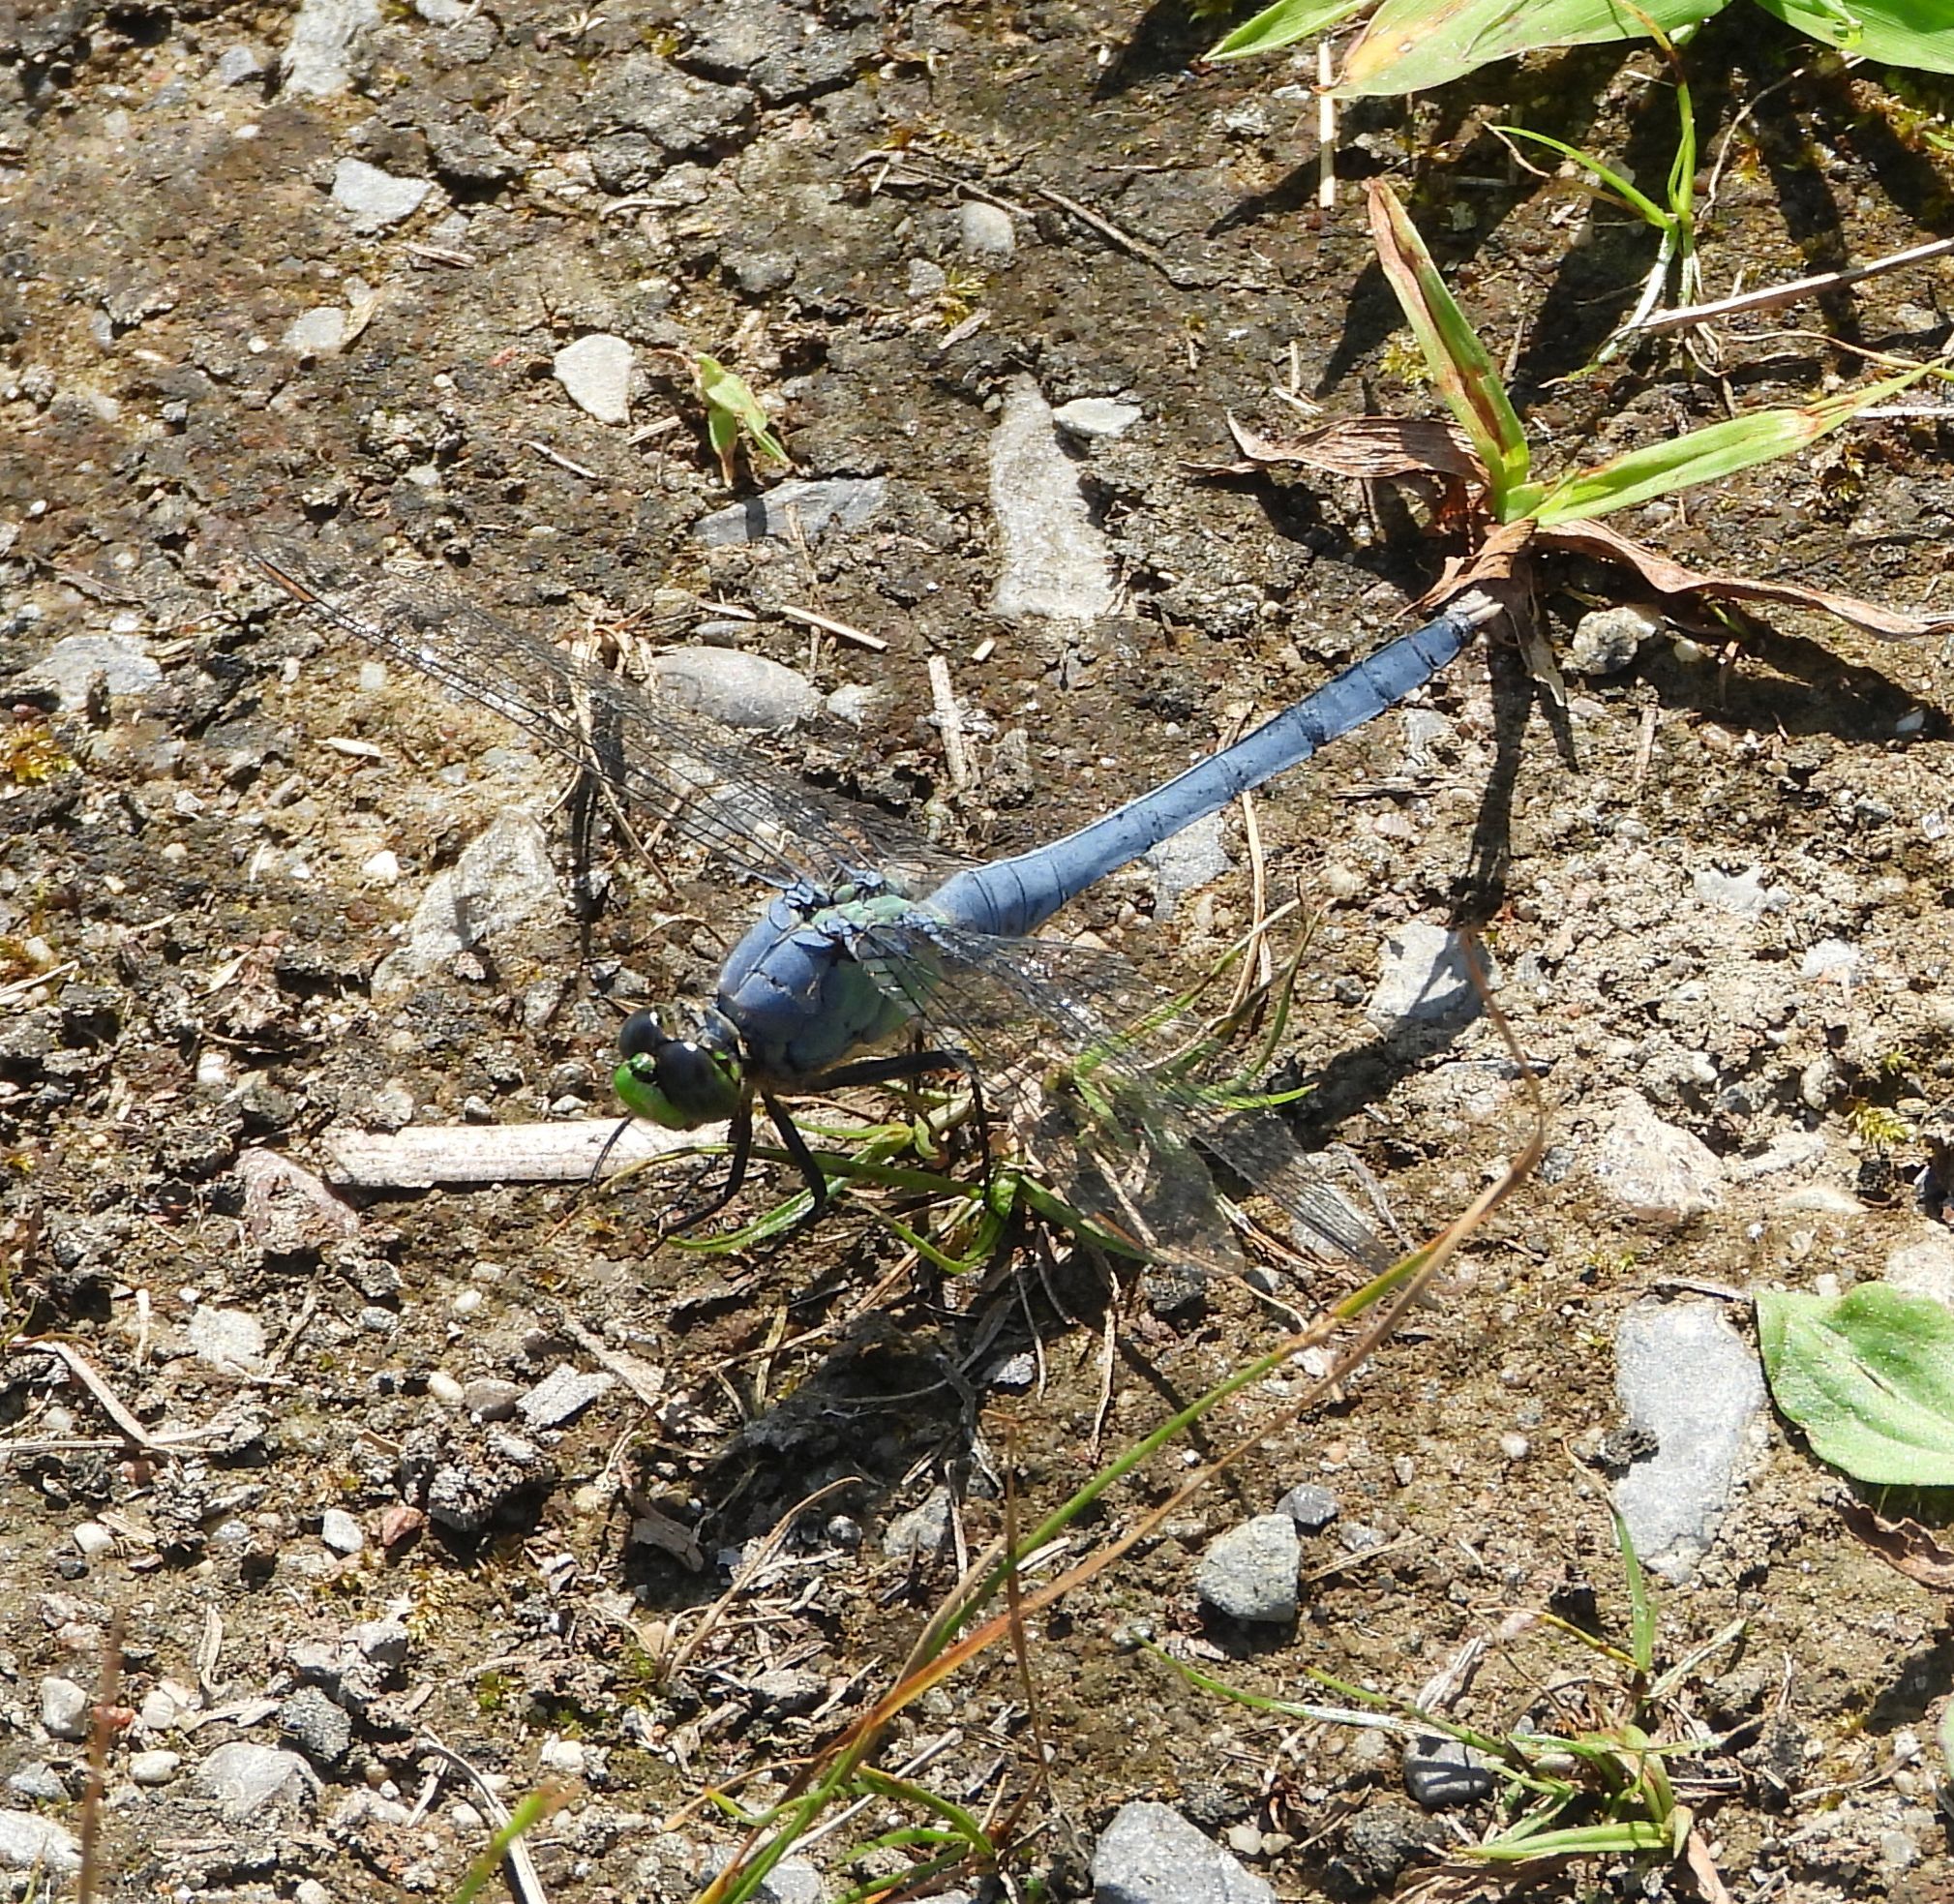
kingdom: Animalia
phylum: Arthropoda
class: Insecta
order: Odonata
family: Libellulidae
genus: Erythemis
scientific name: Erythemis simplicicollis
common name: Eastern pondhawk
